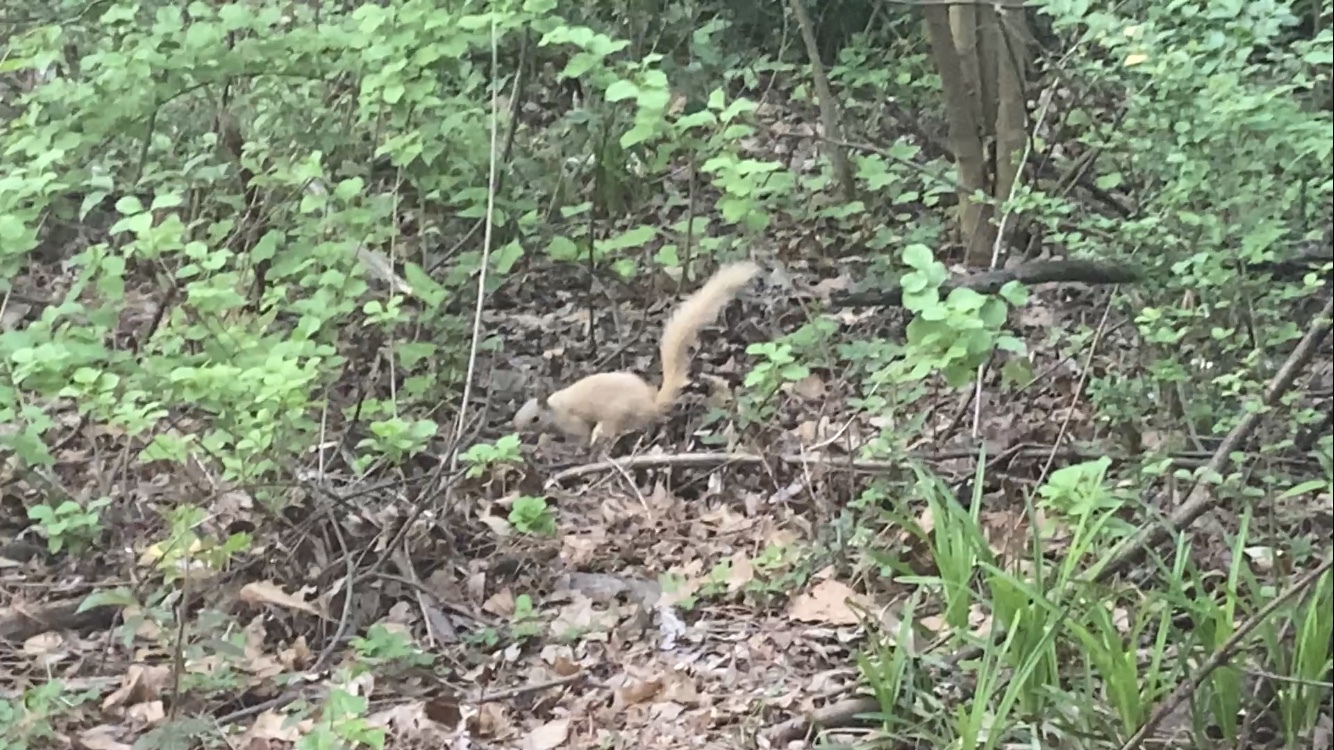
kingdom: Animalia
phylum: Chordata
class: Mammalia
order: Rodentia
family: Sciuridae
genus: Sciurus
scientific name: Sciurus carolinensis
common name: Eastern gray squirrel
